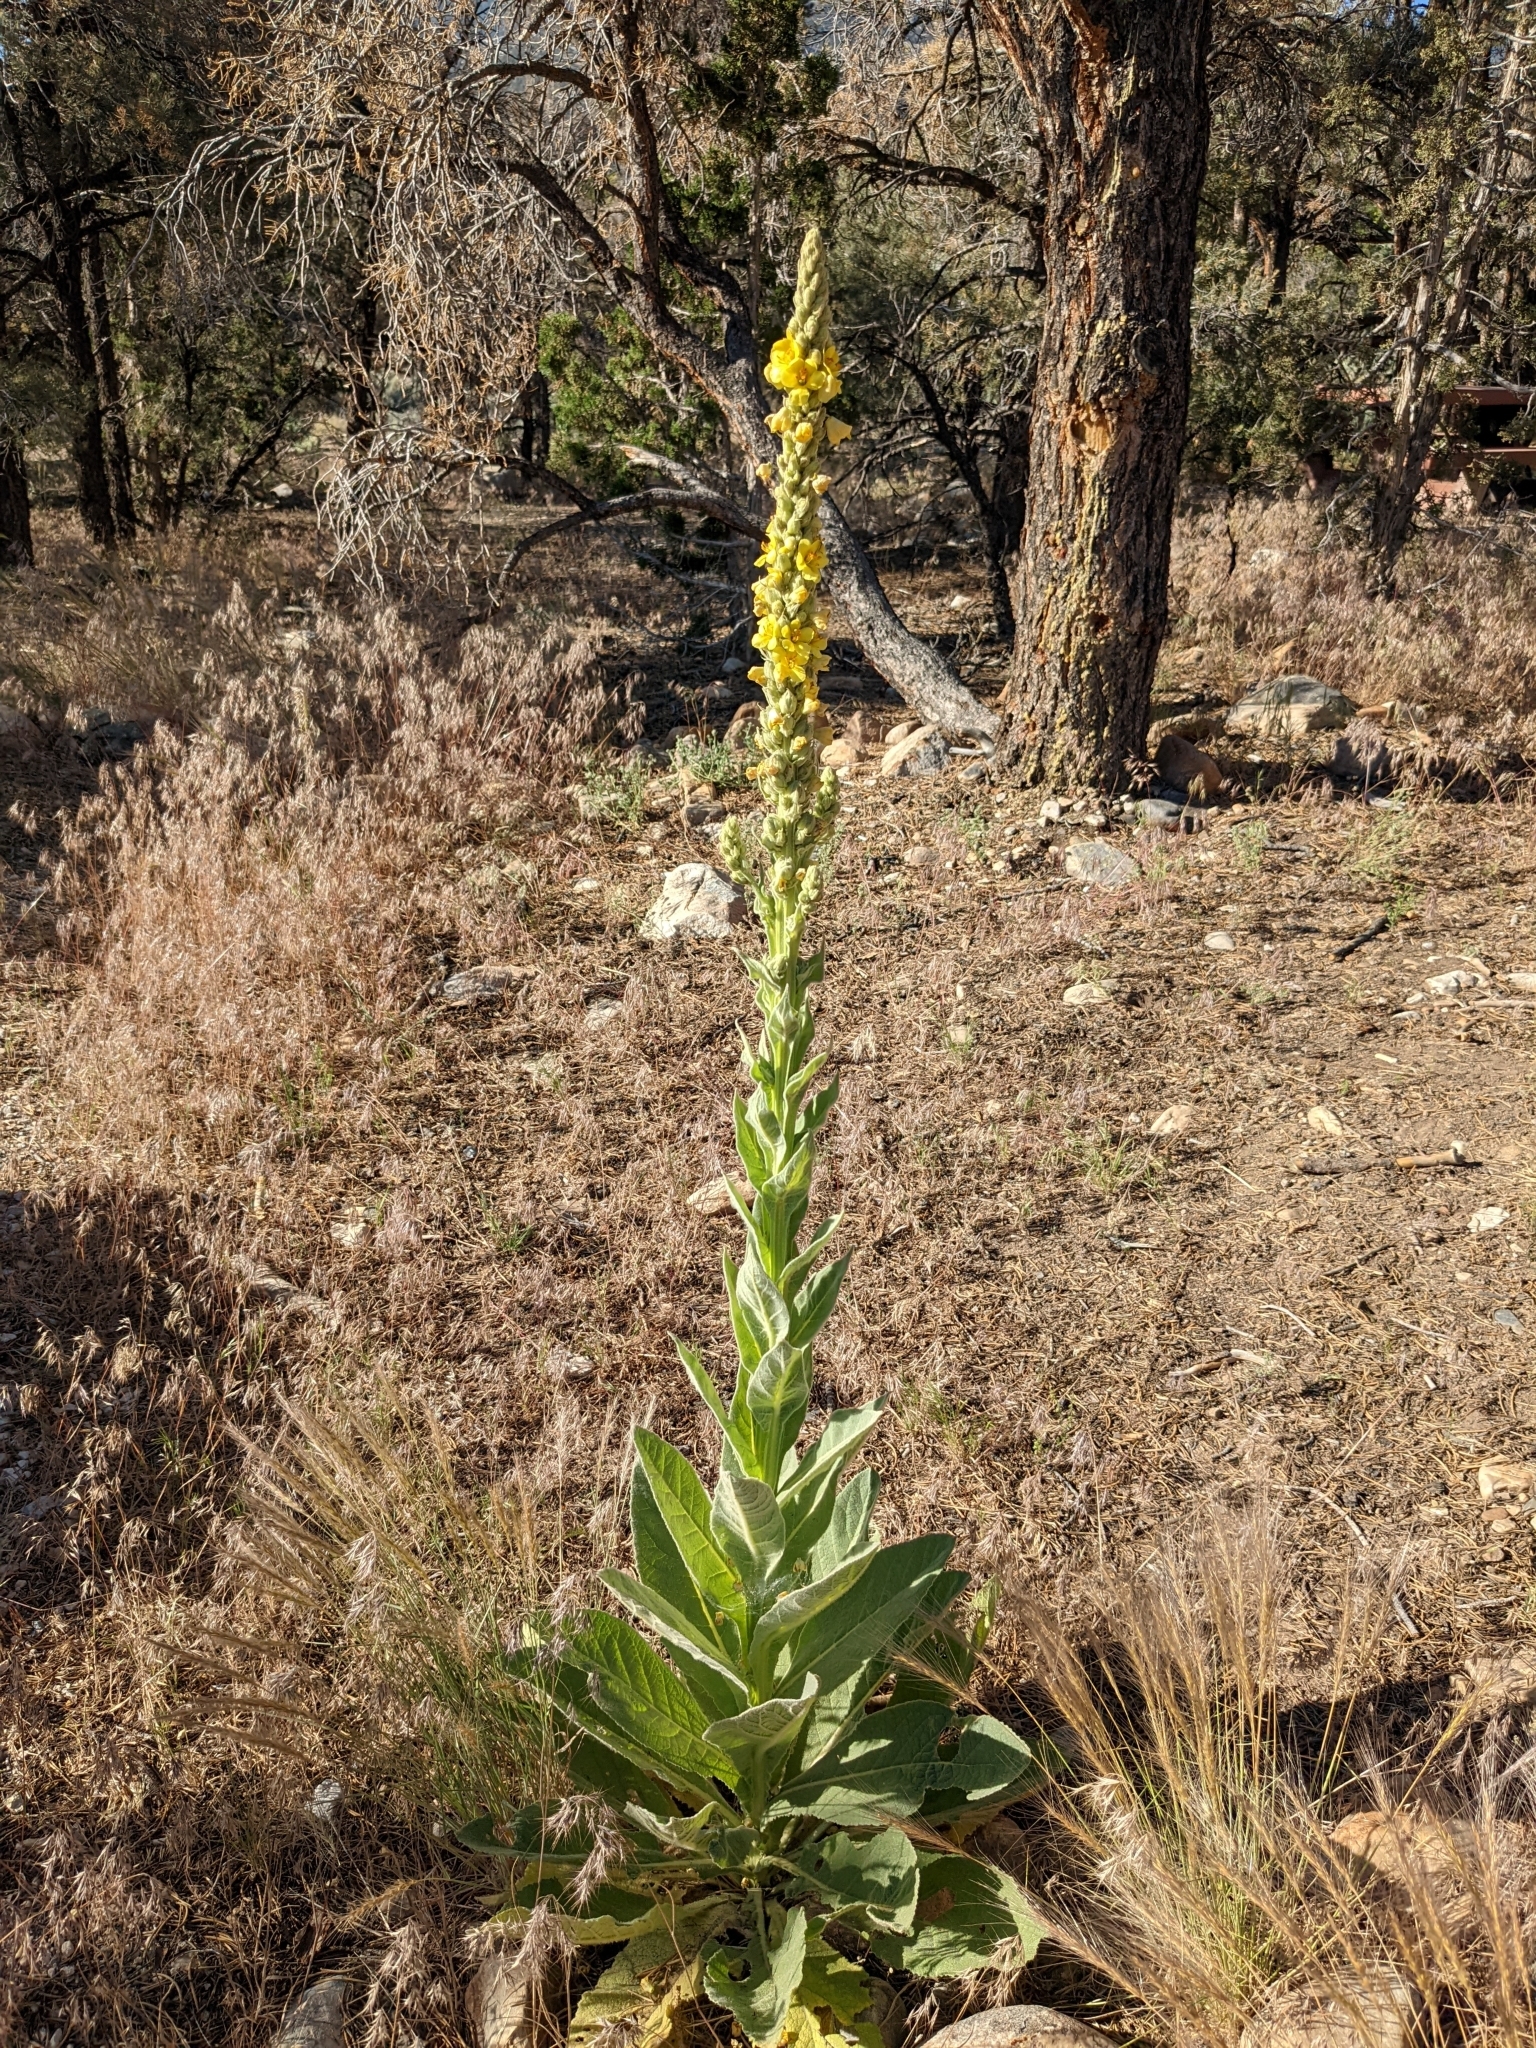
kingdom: Plantae
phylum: Tracheophyta
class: Magnoliopsida
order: Lamiales
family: Scrophulariaceae
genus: Verbascum
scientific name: Verbascum thapsus
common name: Common mullein
